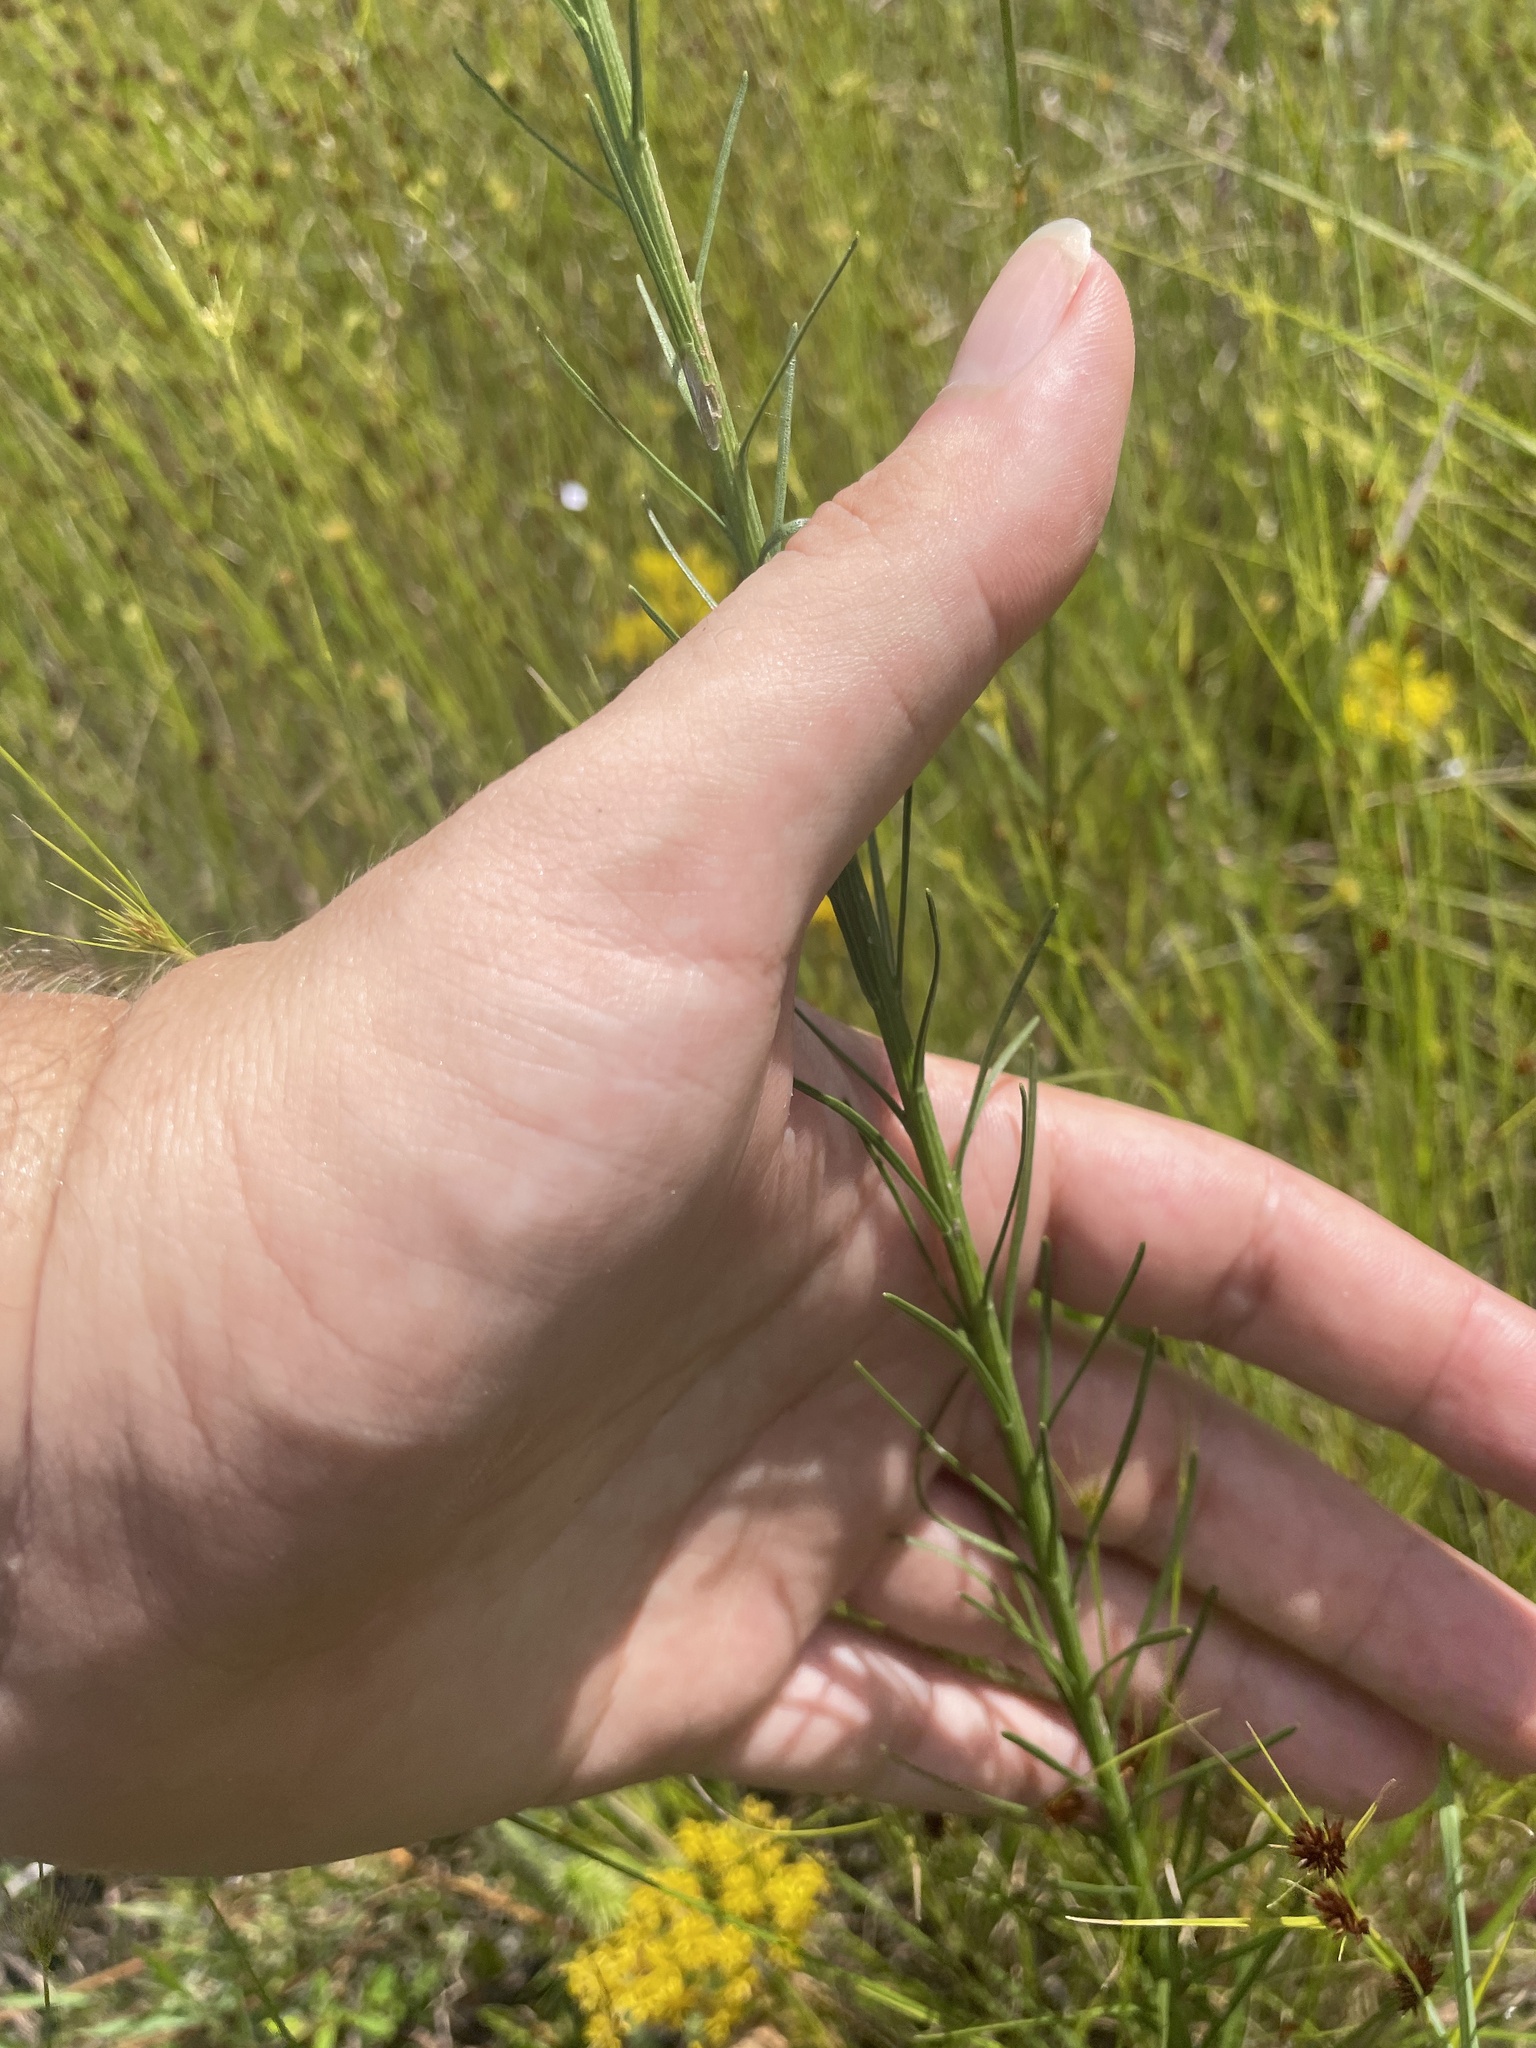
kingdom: Plantae
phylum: Tracheophyta
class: Magnoliopsida
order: Asterales
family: Asteraceae
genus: Liatris
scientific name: Liatris pilosa
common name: Grass-leaf gayfeather
